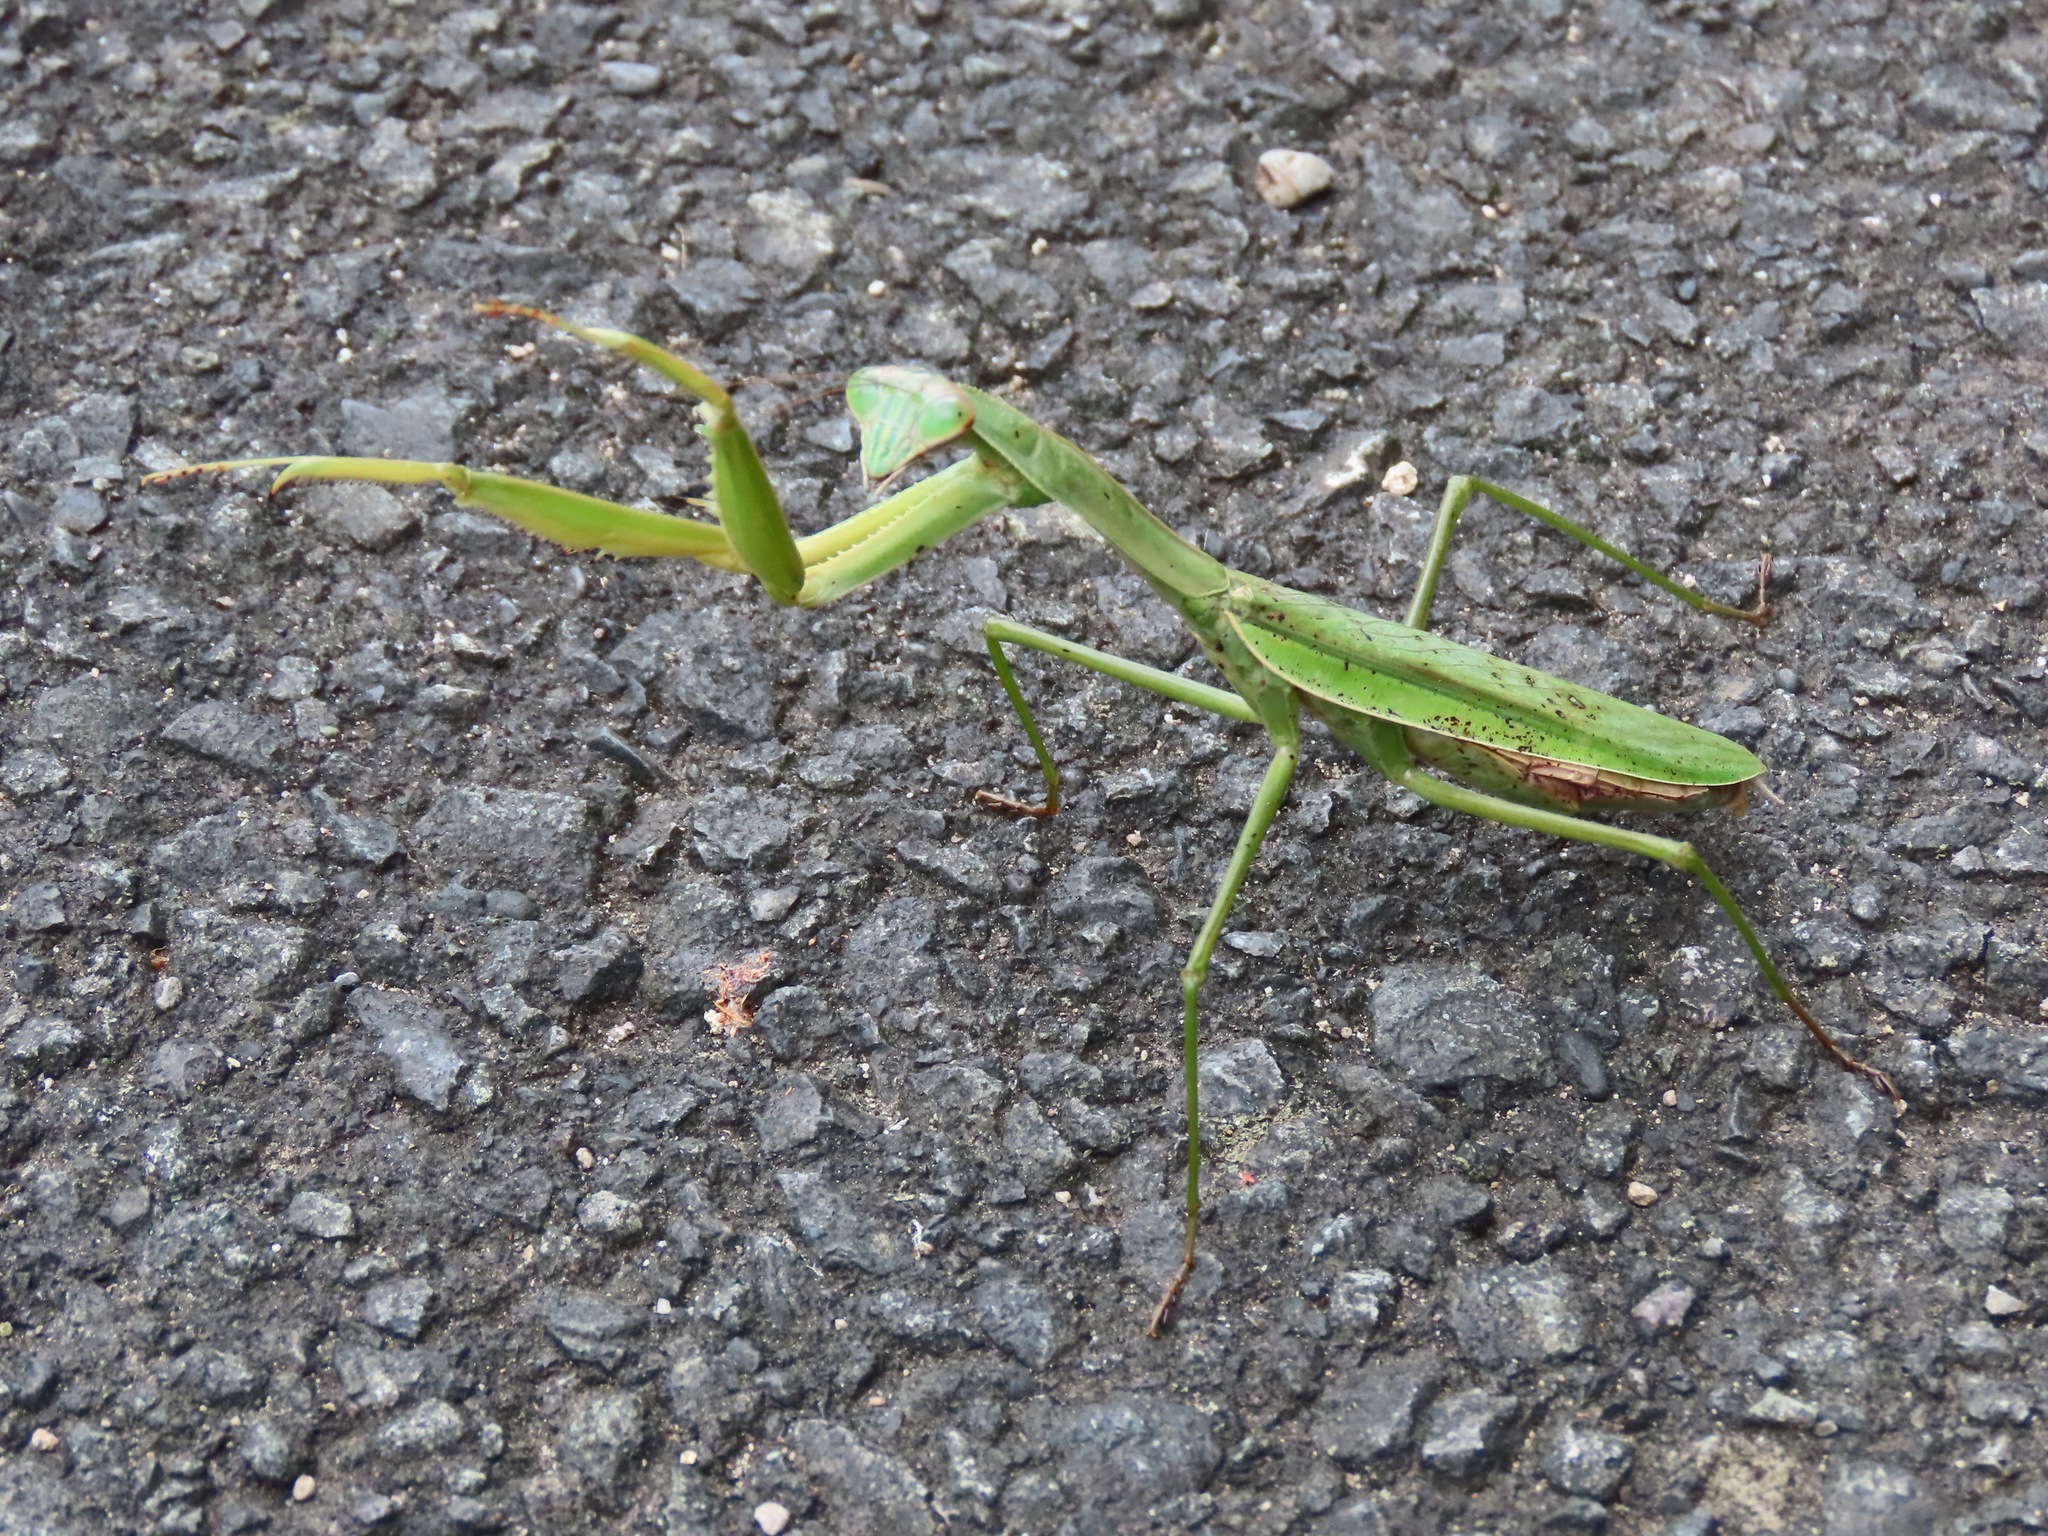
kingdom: Animalia
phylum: Arthropoda
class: Insecta
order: Mantodea
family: Mantidae
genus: Tenodera
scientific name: Tenodera sinensis
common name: Chinese mantis
